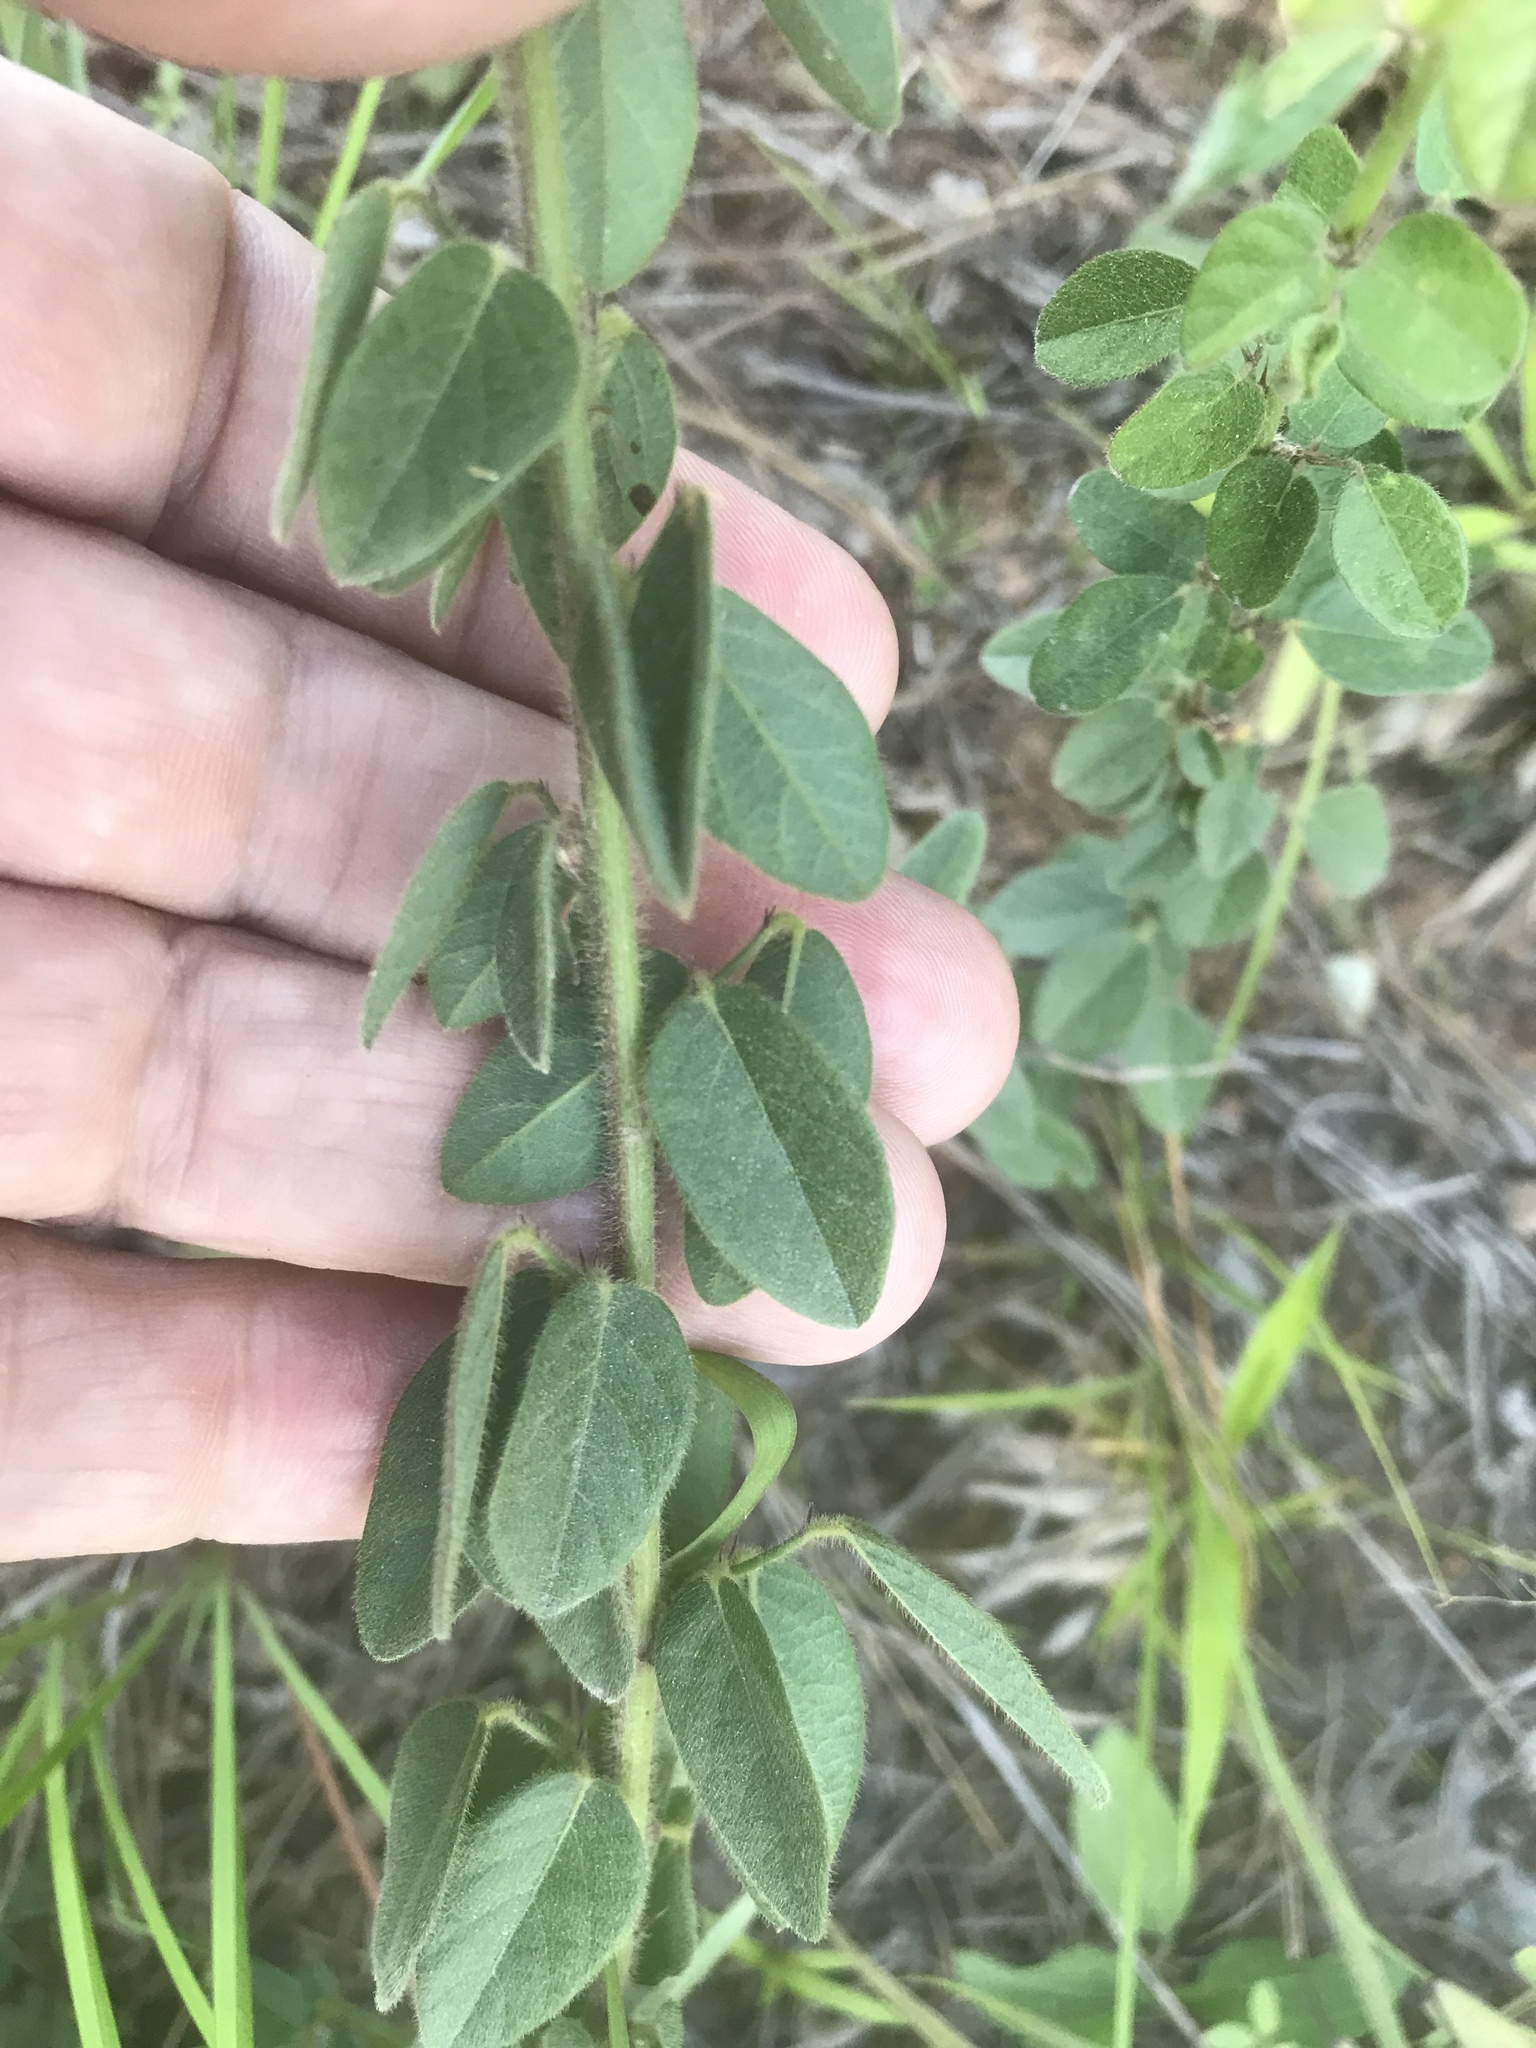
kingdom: Plantae
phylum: Tracheophyta
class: Magnoliopsida
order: Fabales
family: Fabaceae
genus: Desmodium
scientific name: Desmodium ciliare
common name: Hairy small-leaf ticktrefoil
